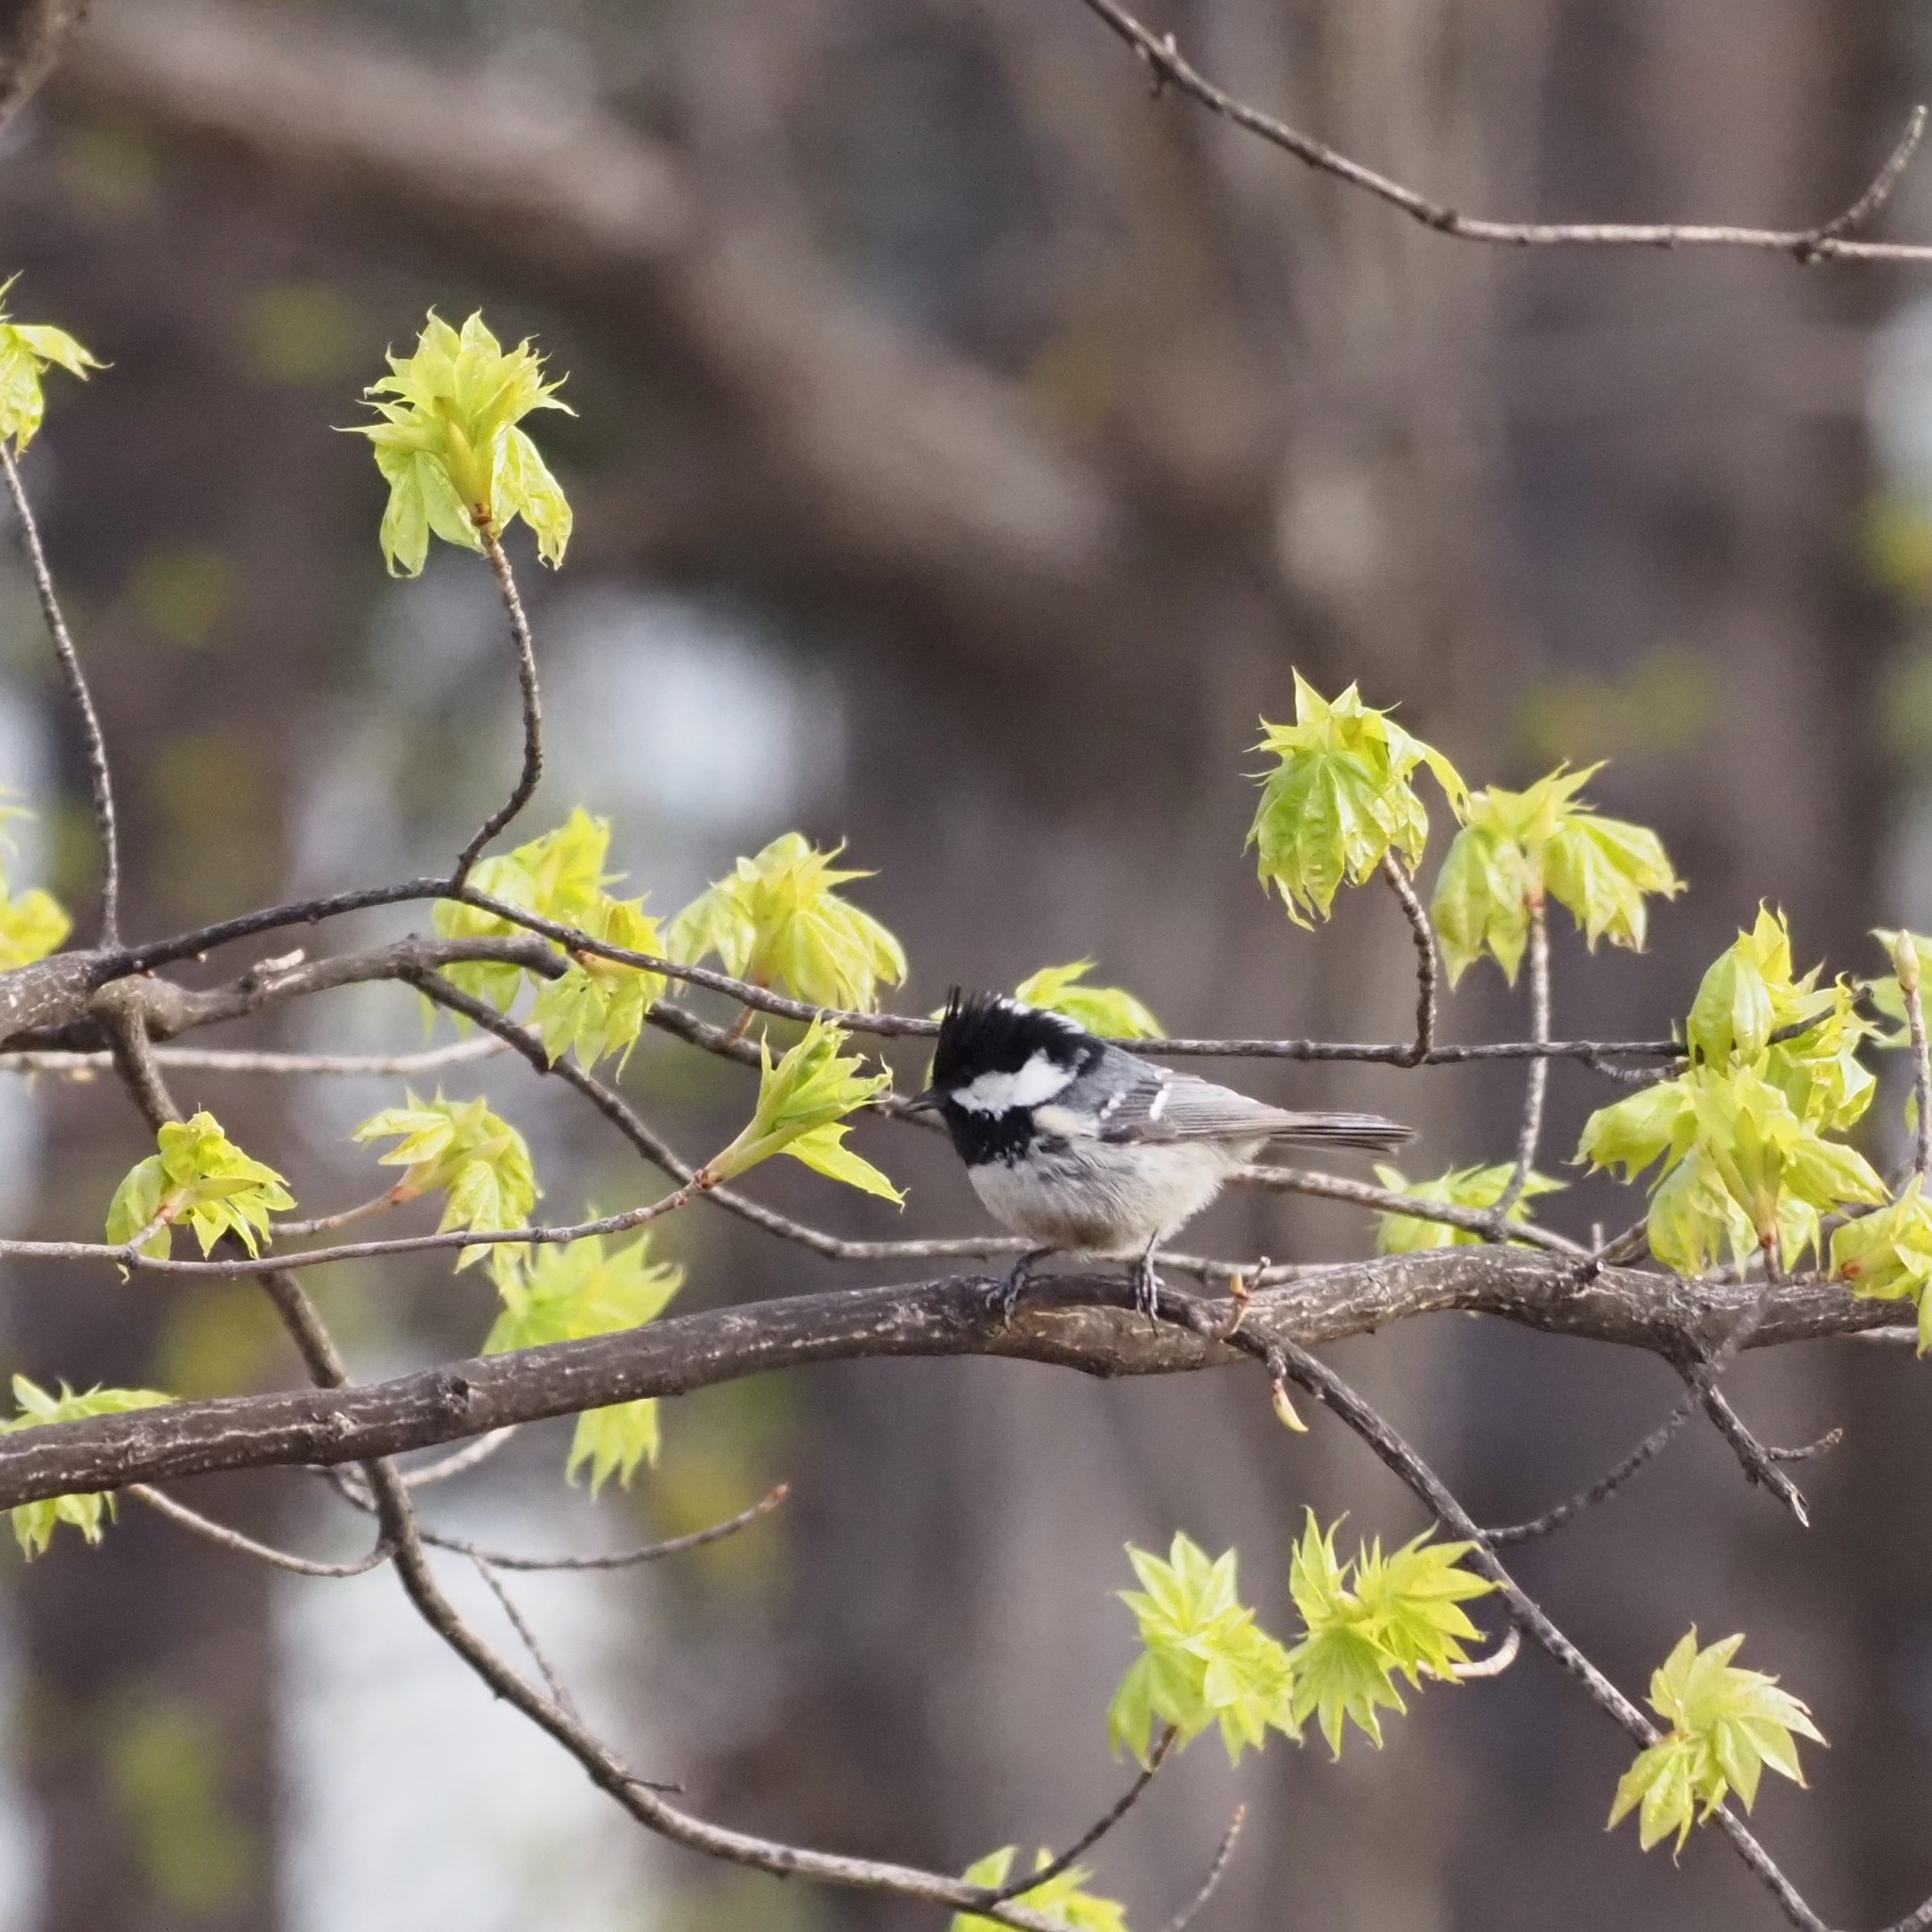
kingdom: Animalia
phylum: Chordata
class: Aves
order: Passeriformes
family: Paridae
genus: Periparus
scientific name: Periparus ater
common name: Coal tit
